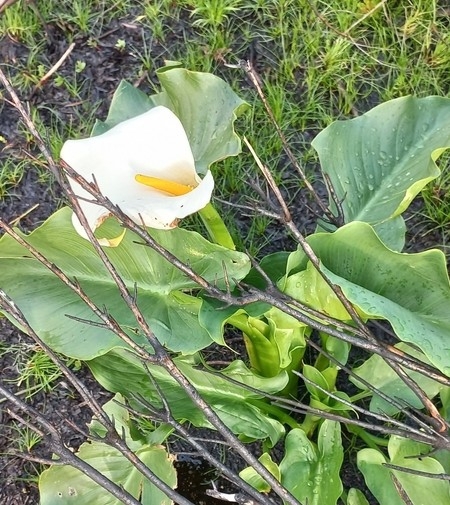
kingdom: Plantae
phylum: Tracheophyta
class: Liliopsida
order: Alismatales
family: Araceae
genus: Zantedeschia
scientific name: Zantedeschia aethiopica
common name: Altar-lily
